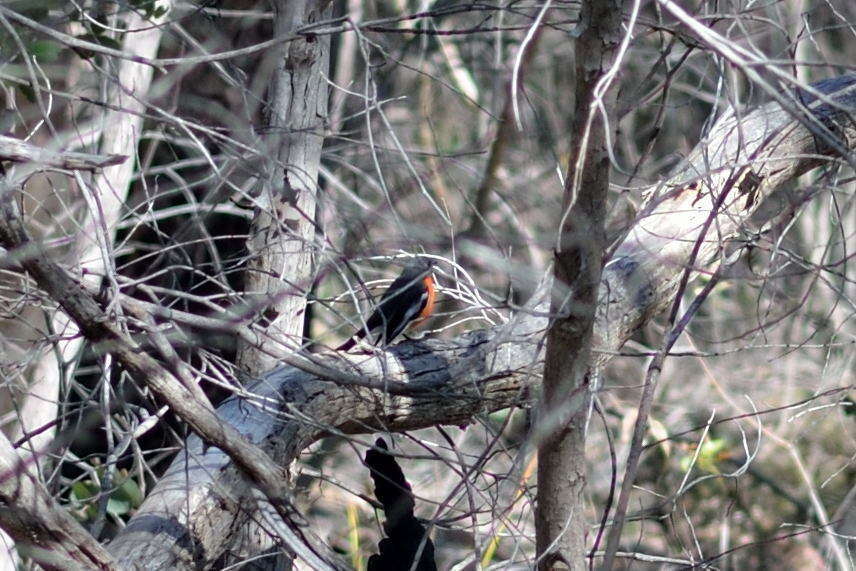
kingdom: Animalia
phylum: Chordata
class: Aves
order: Passeriformes
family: Petroicidae
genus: Petroica
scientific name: Petroica phoenicea
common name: Flame robin
